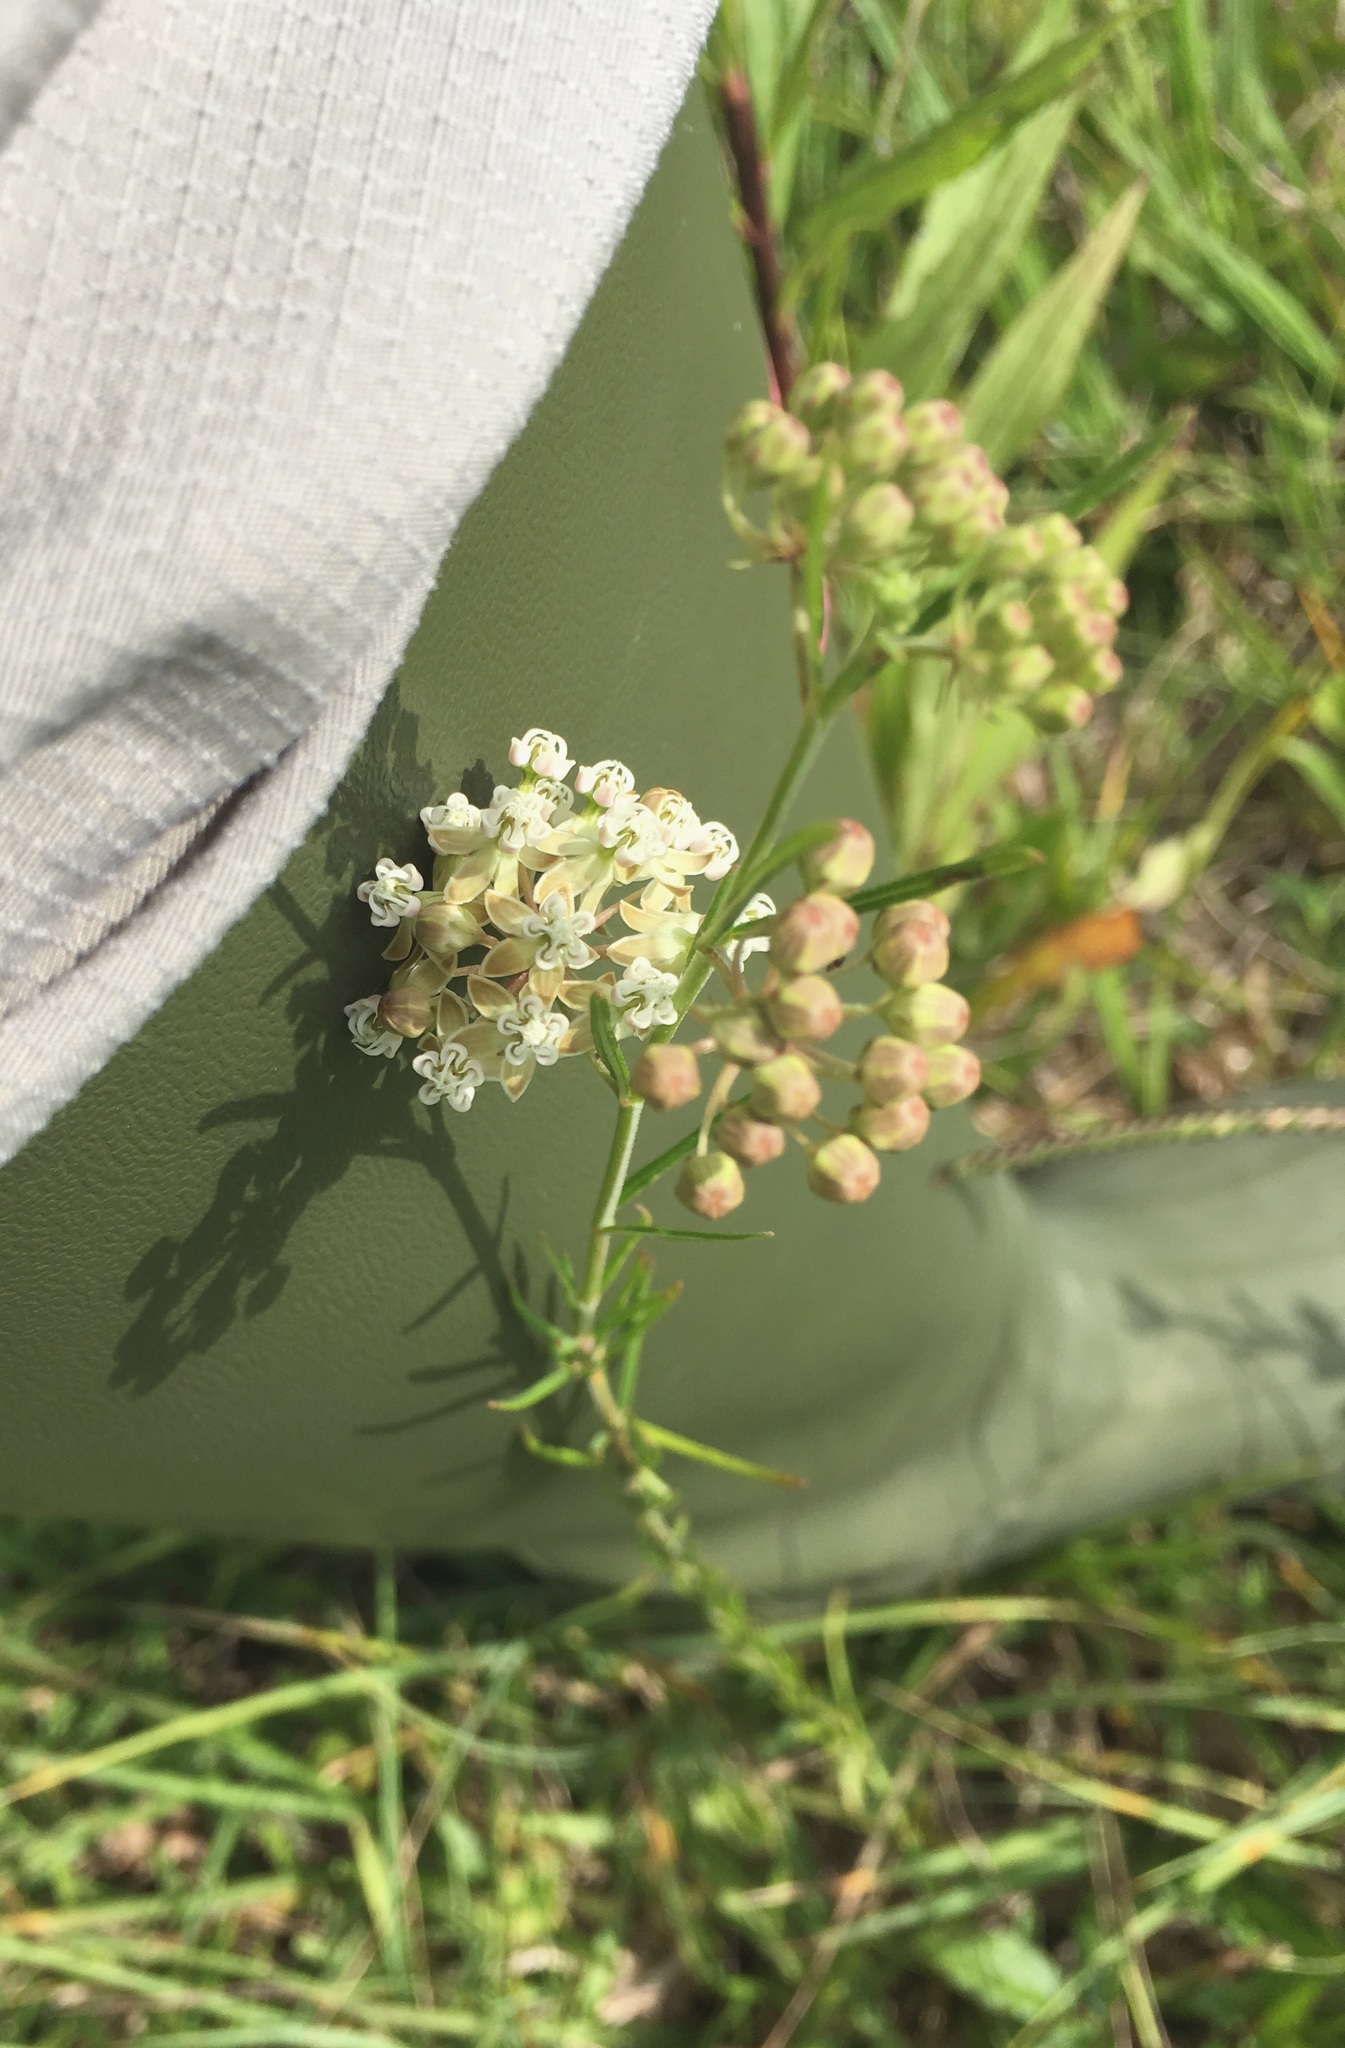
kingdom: Plantae
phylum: Tracheophyta
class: Magnoliopsida
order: Gentianales
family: Apocynaceae
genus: Asclepias
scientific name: Asclepias verticillata
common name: Eastern whorled milkweed
